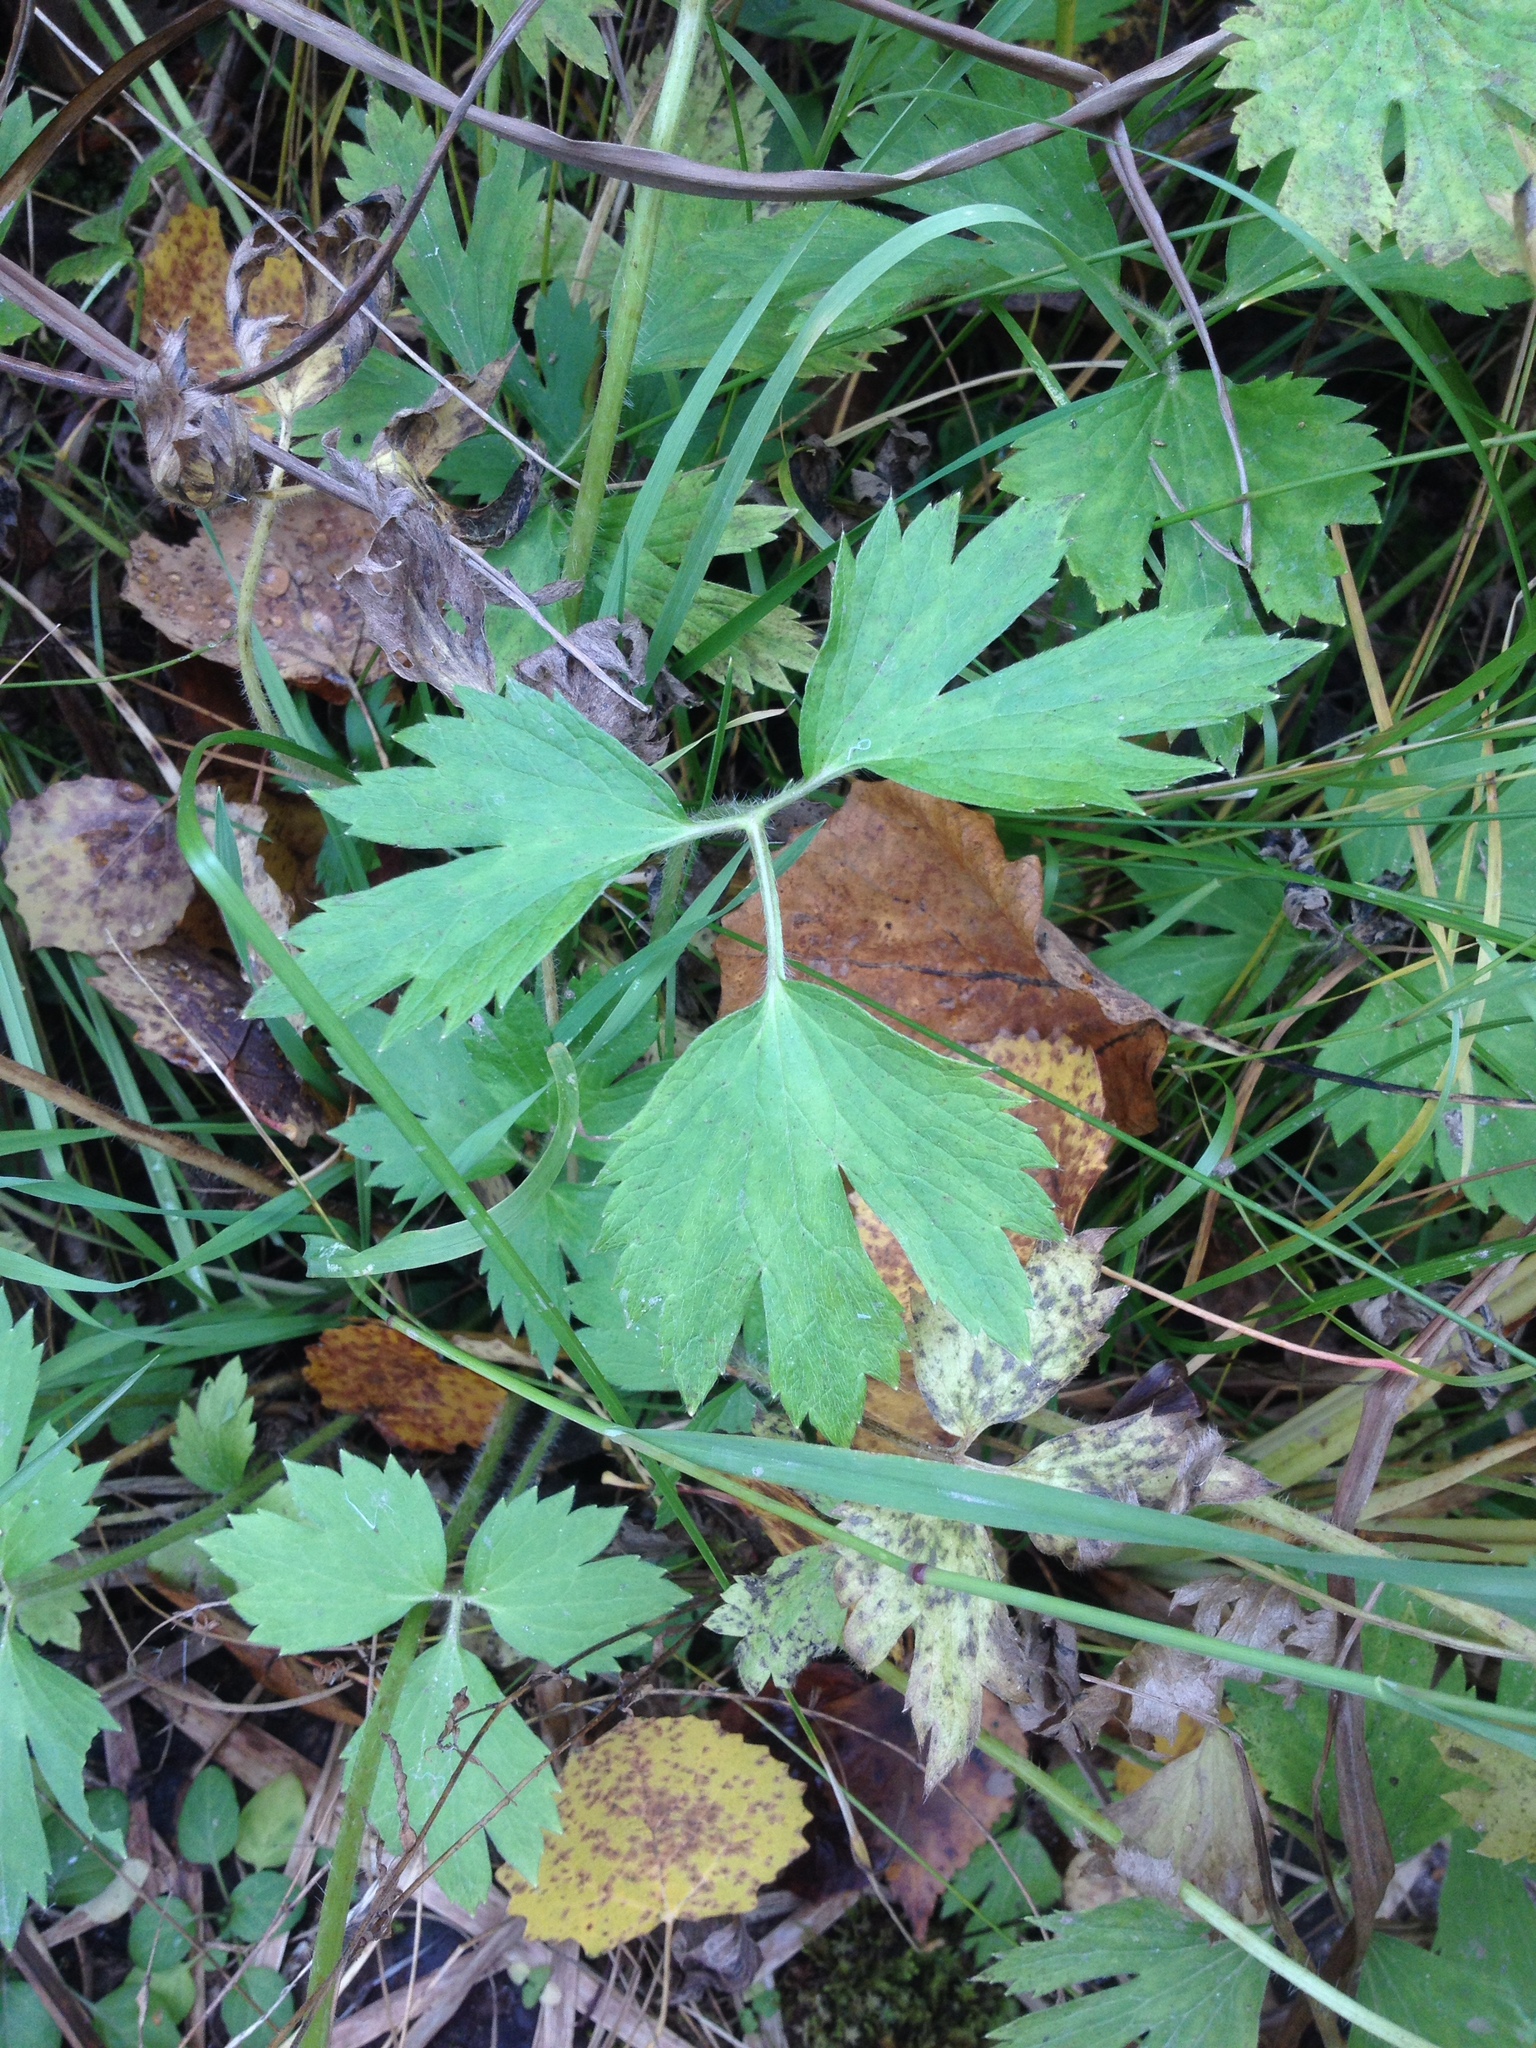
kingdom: Plantae
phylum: Tracheophyta
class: Magnoliopsida
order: Ranunculales
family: Ranunculaceae
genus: Ranunculus
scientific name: Ranunculus repens
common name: Creeping buttercup
